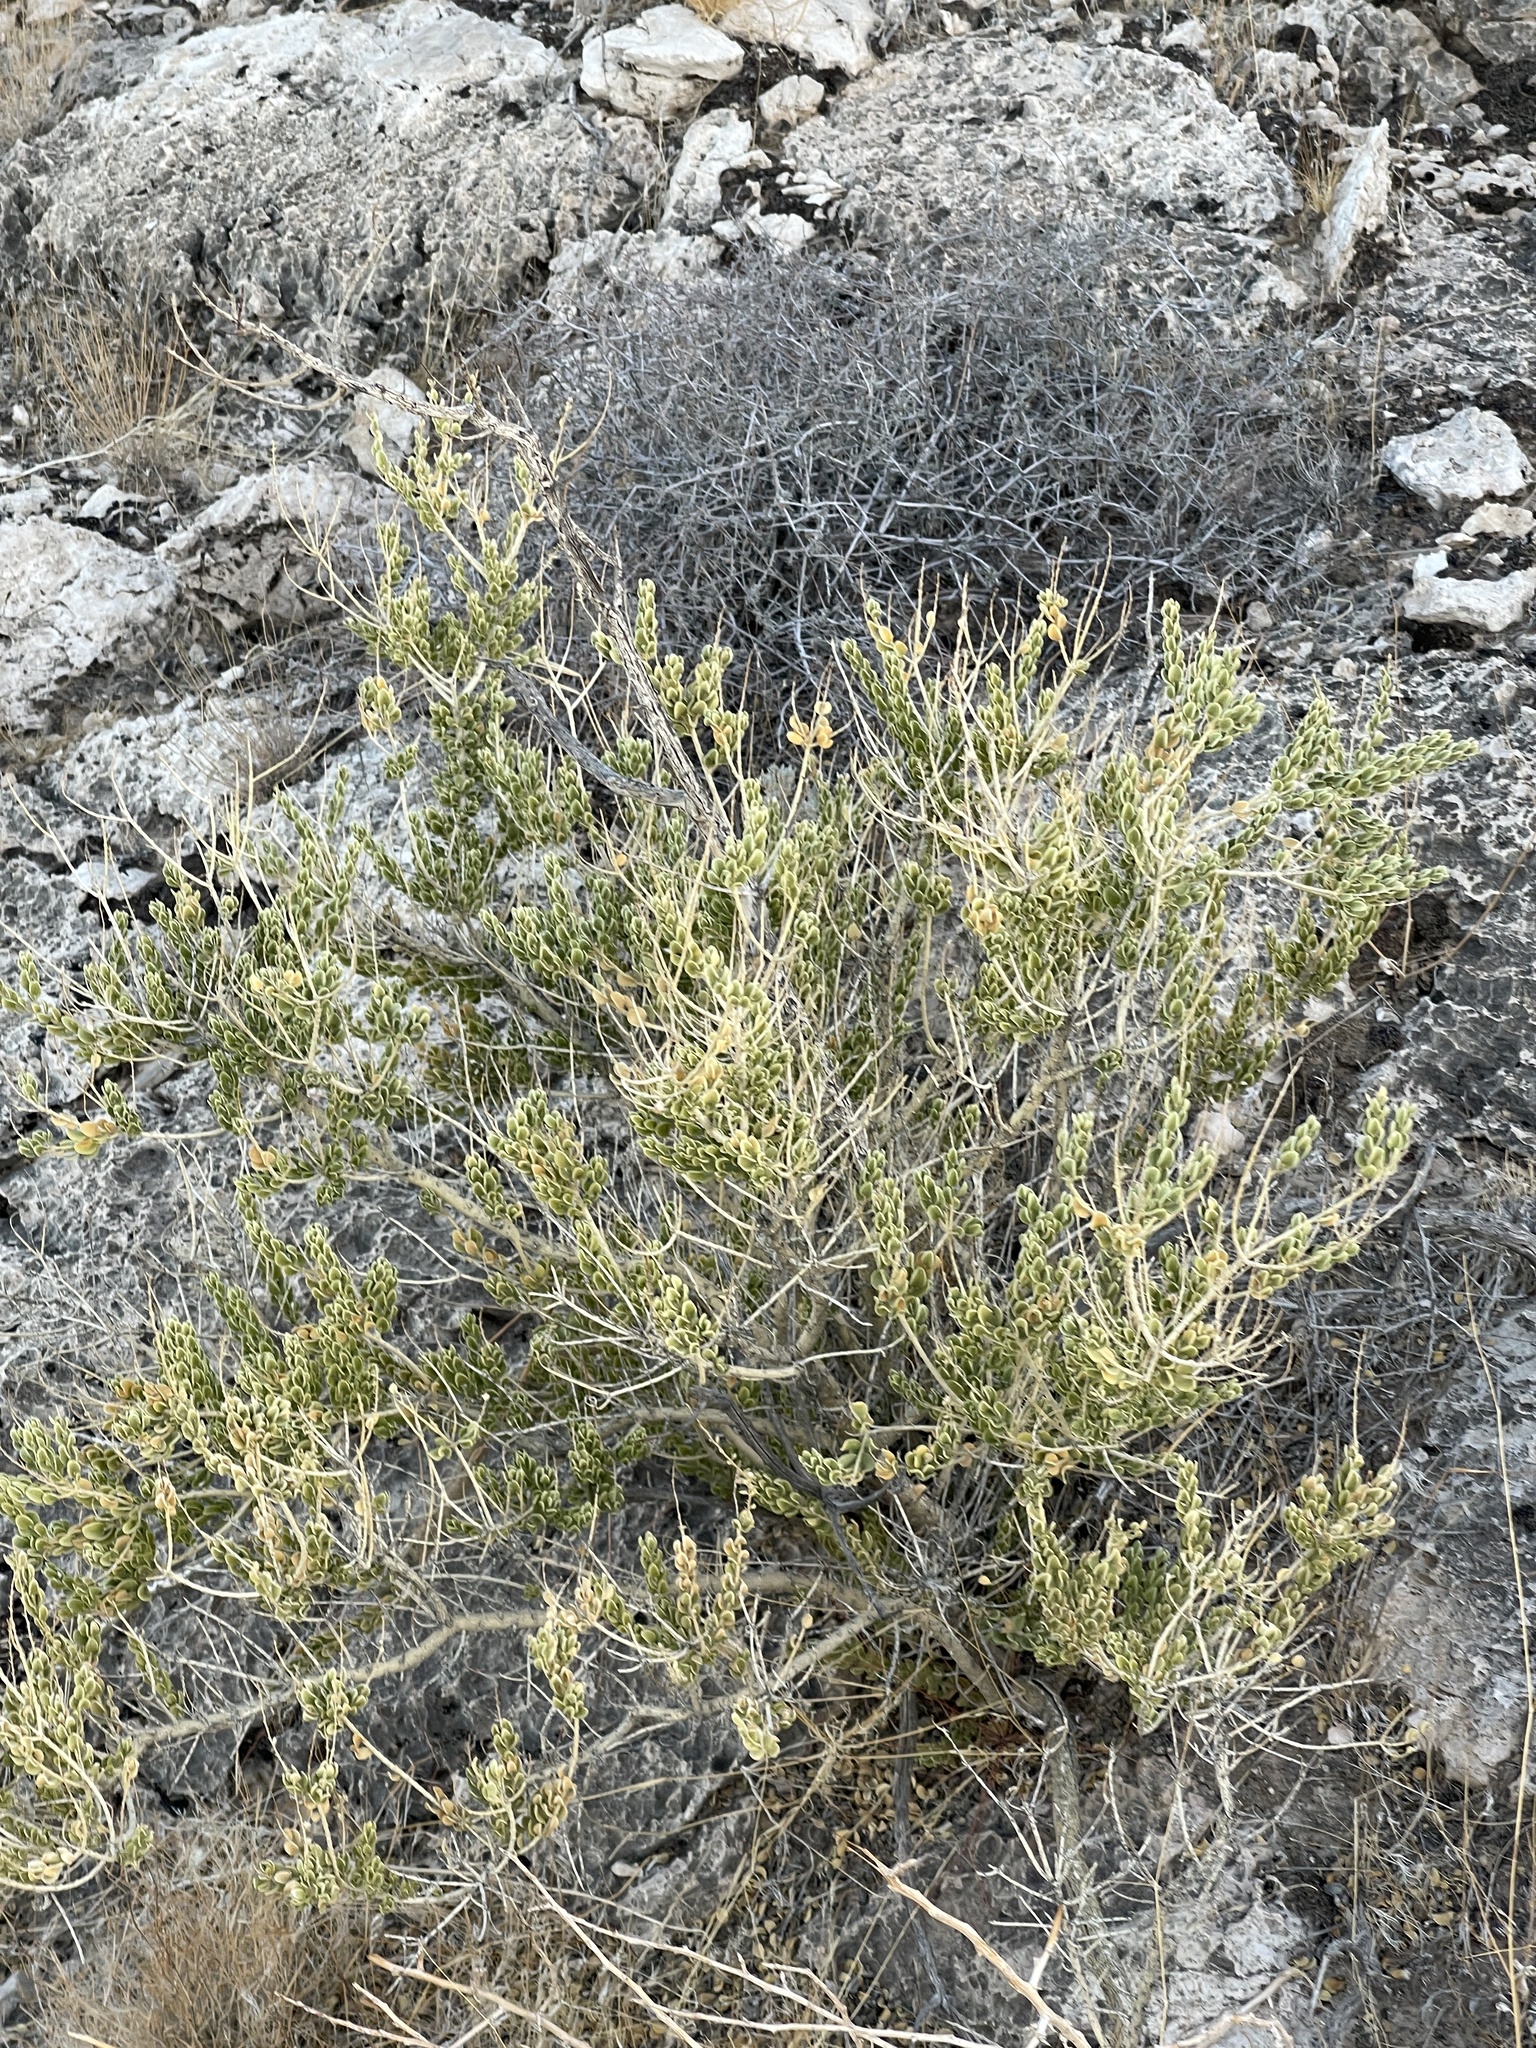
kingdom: Plantae
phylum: Tracheophyta
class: Magnoliopsida
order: Celastrales
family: Celastraceae
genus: Mortonia
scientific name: Mortonia utahensis
